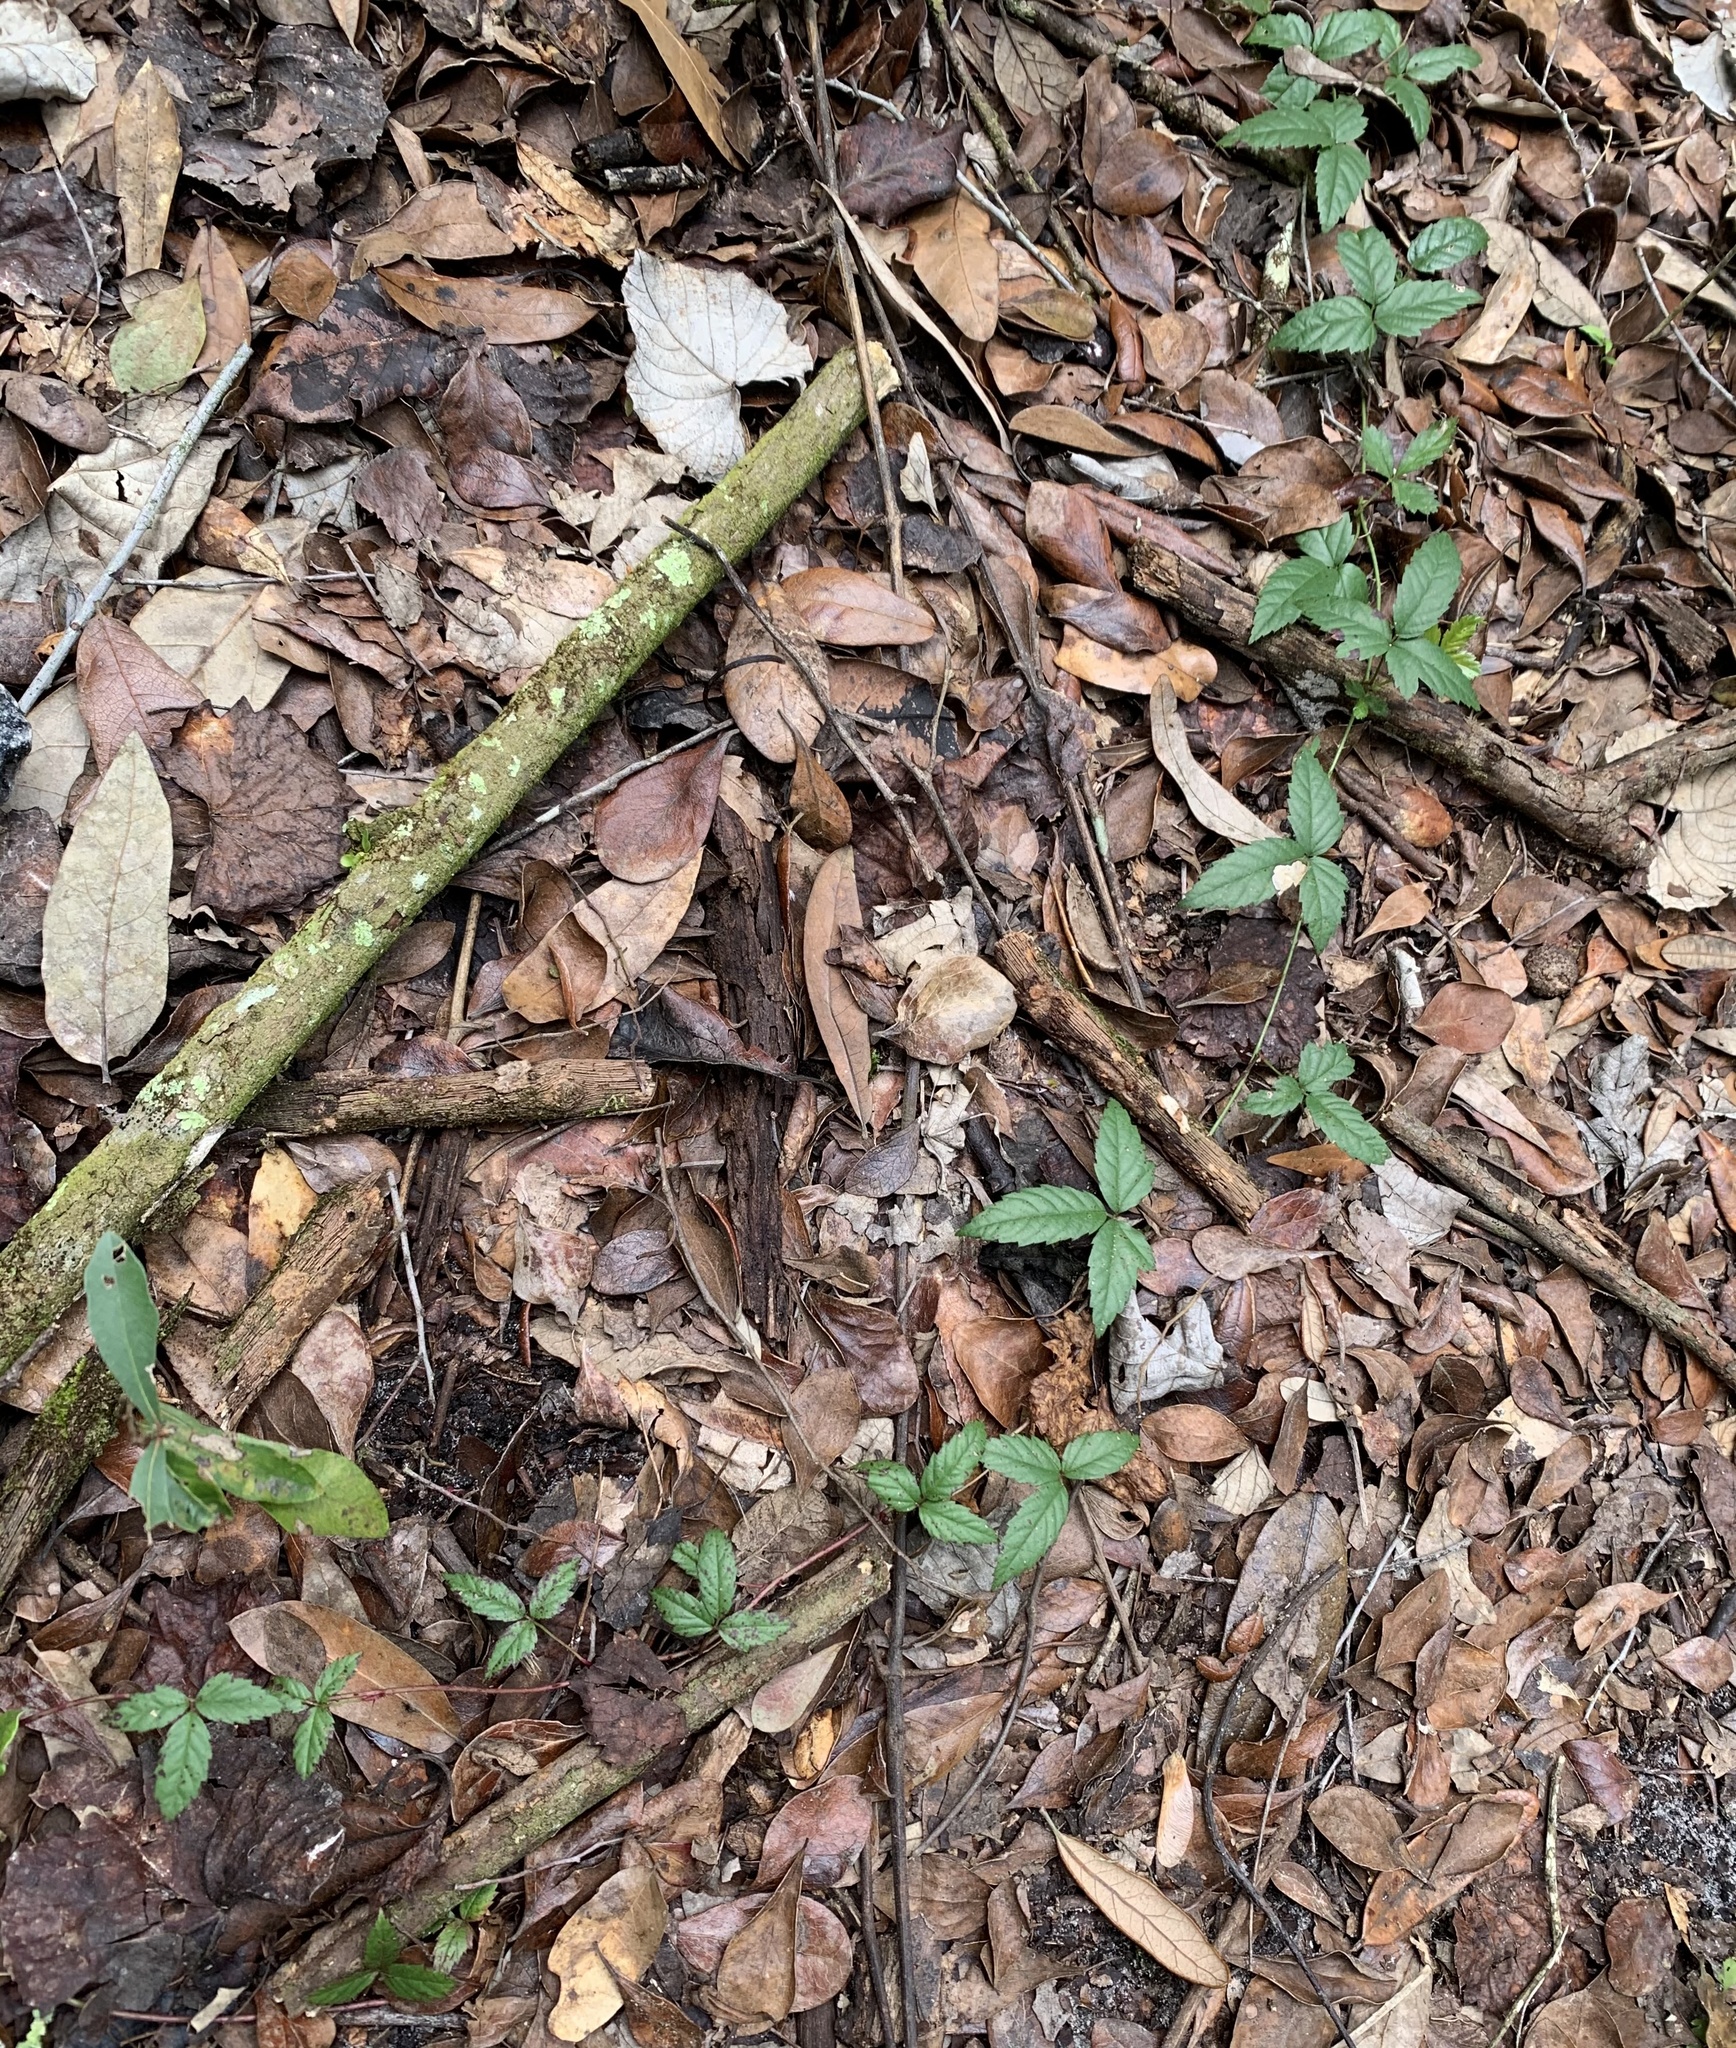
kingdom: Plantae
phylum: Tracheophyta
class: Magnoliopsida
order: Rosales
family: Rosaceae
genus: Rubus
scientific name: Rubus trivialis
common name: Southern dewberry
